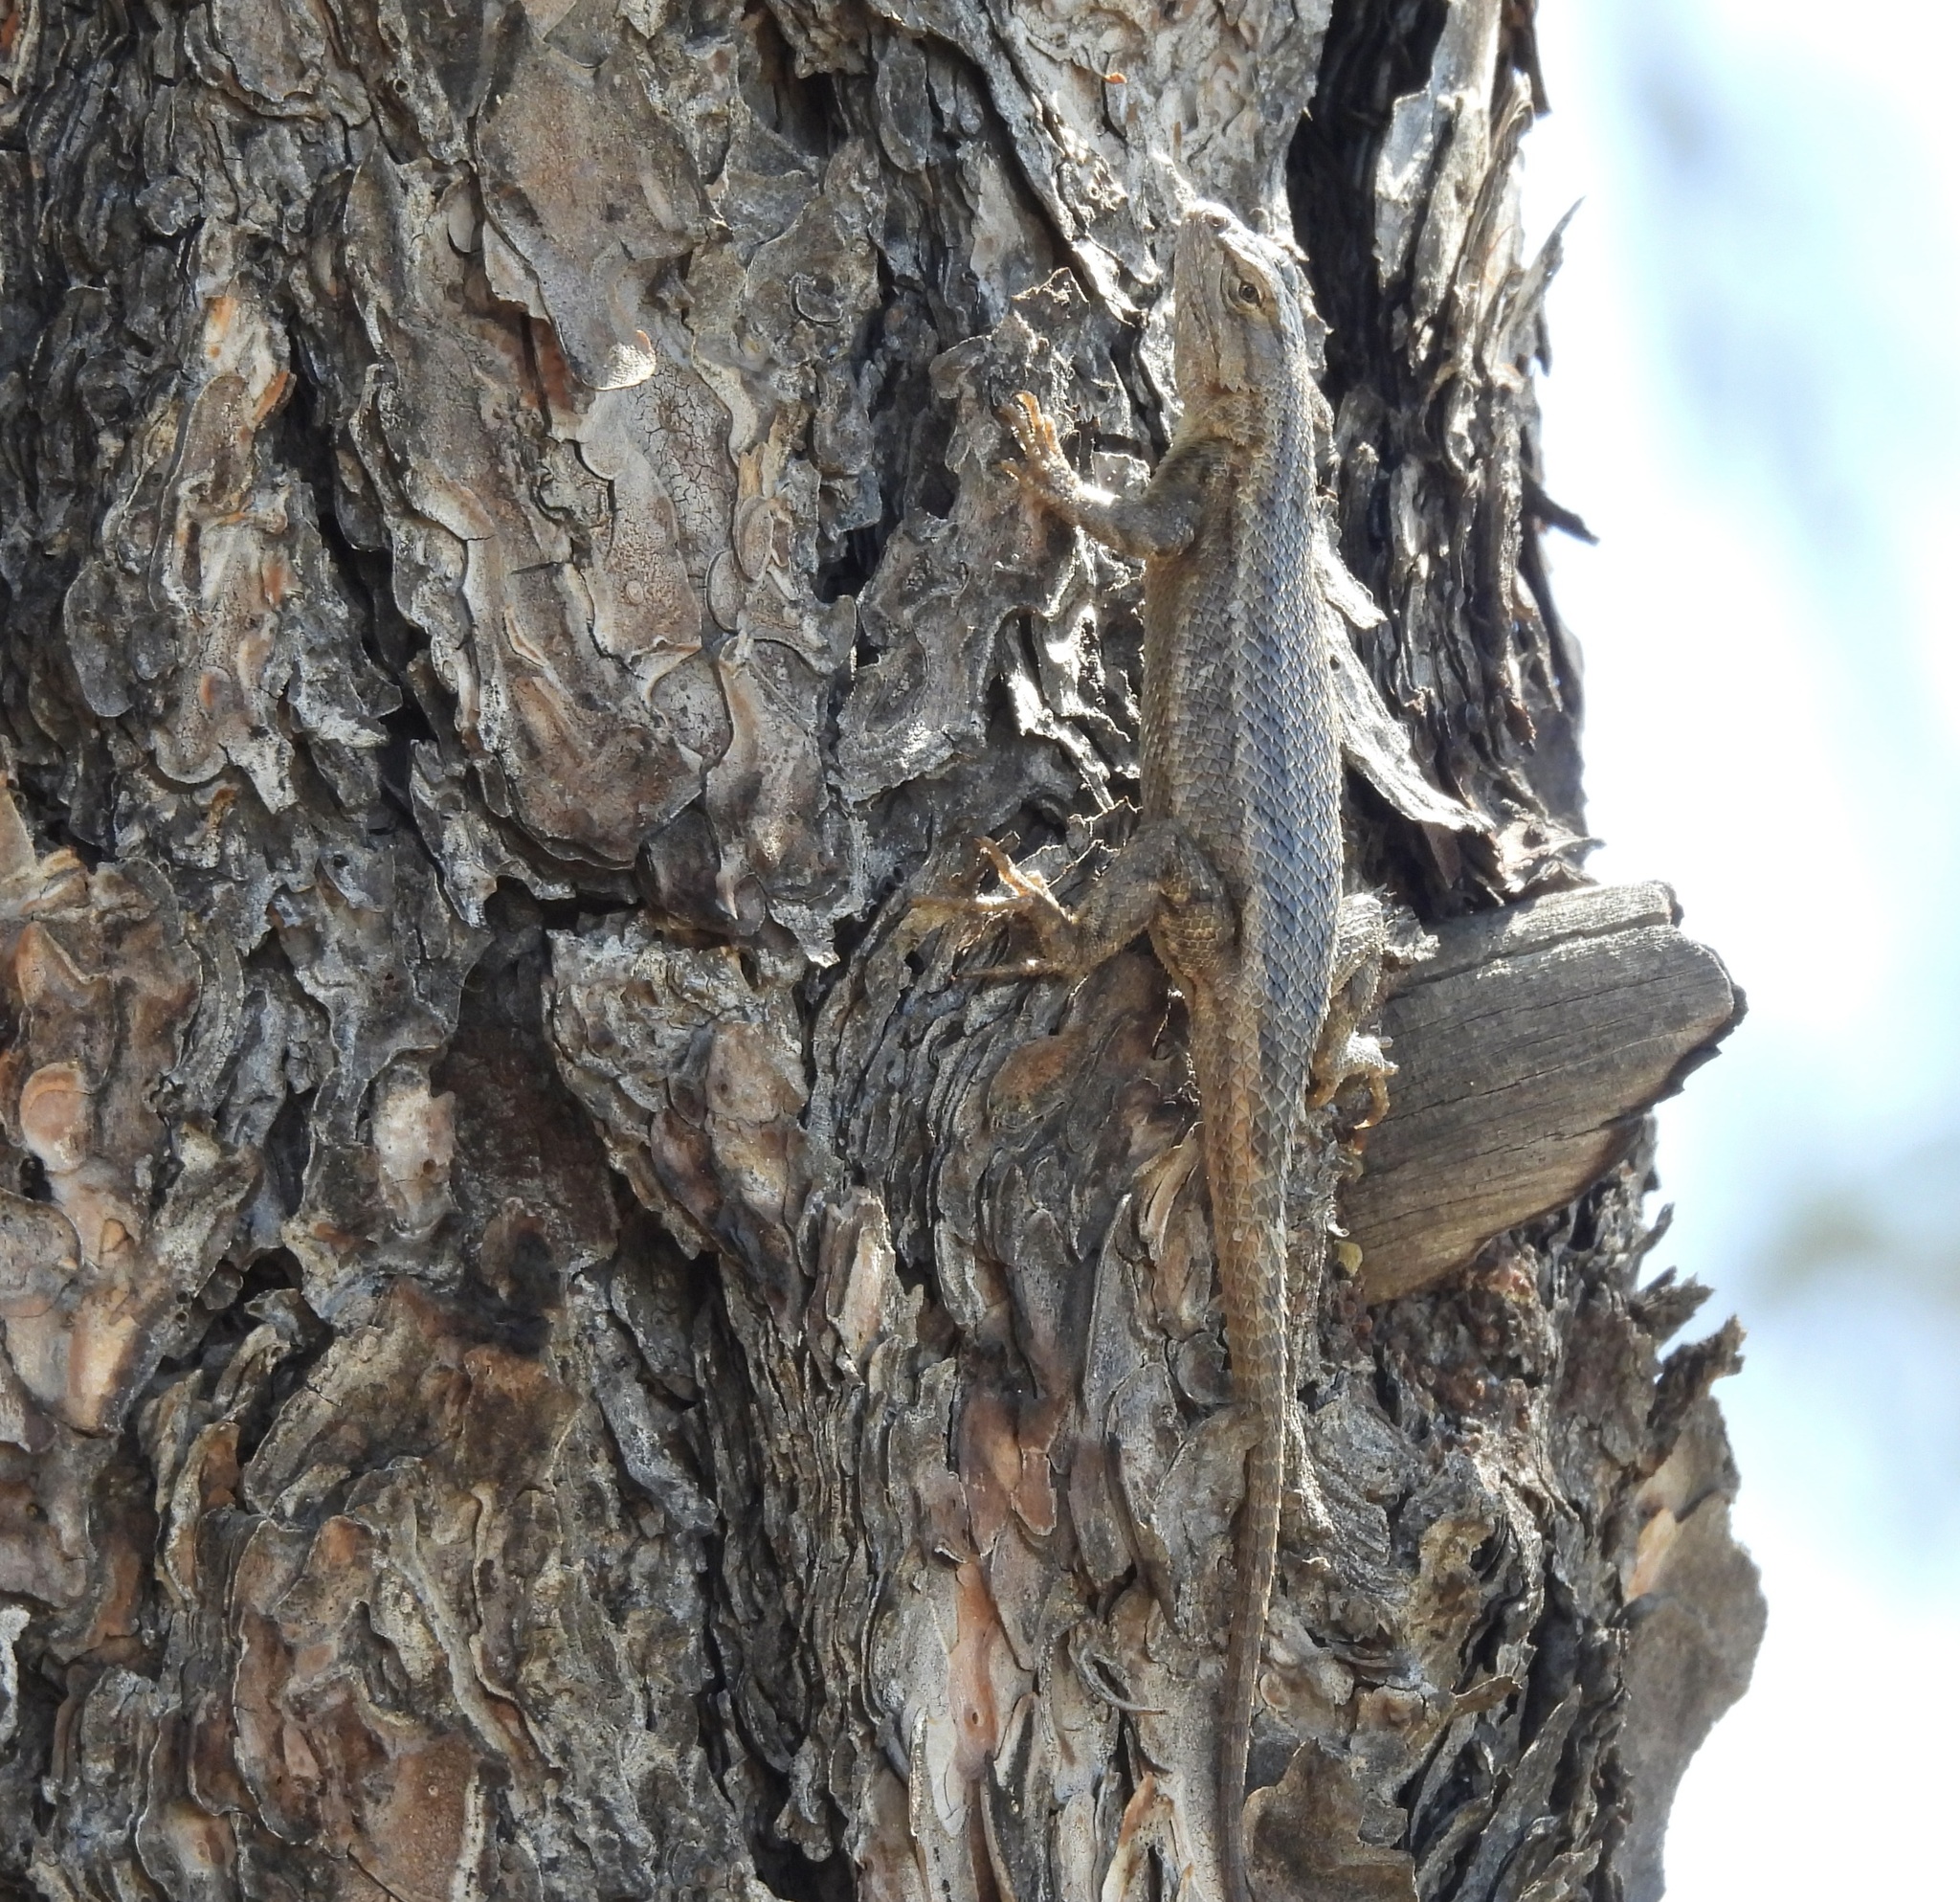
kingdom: Animalia
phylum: Chordata
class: Squamata
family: Phrynosomatidae
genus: Sceloporus
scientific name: Sceloporus cowlesi
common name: White sands prairie lizard
